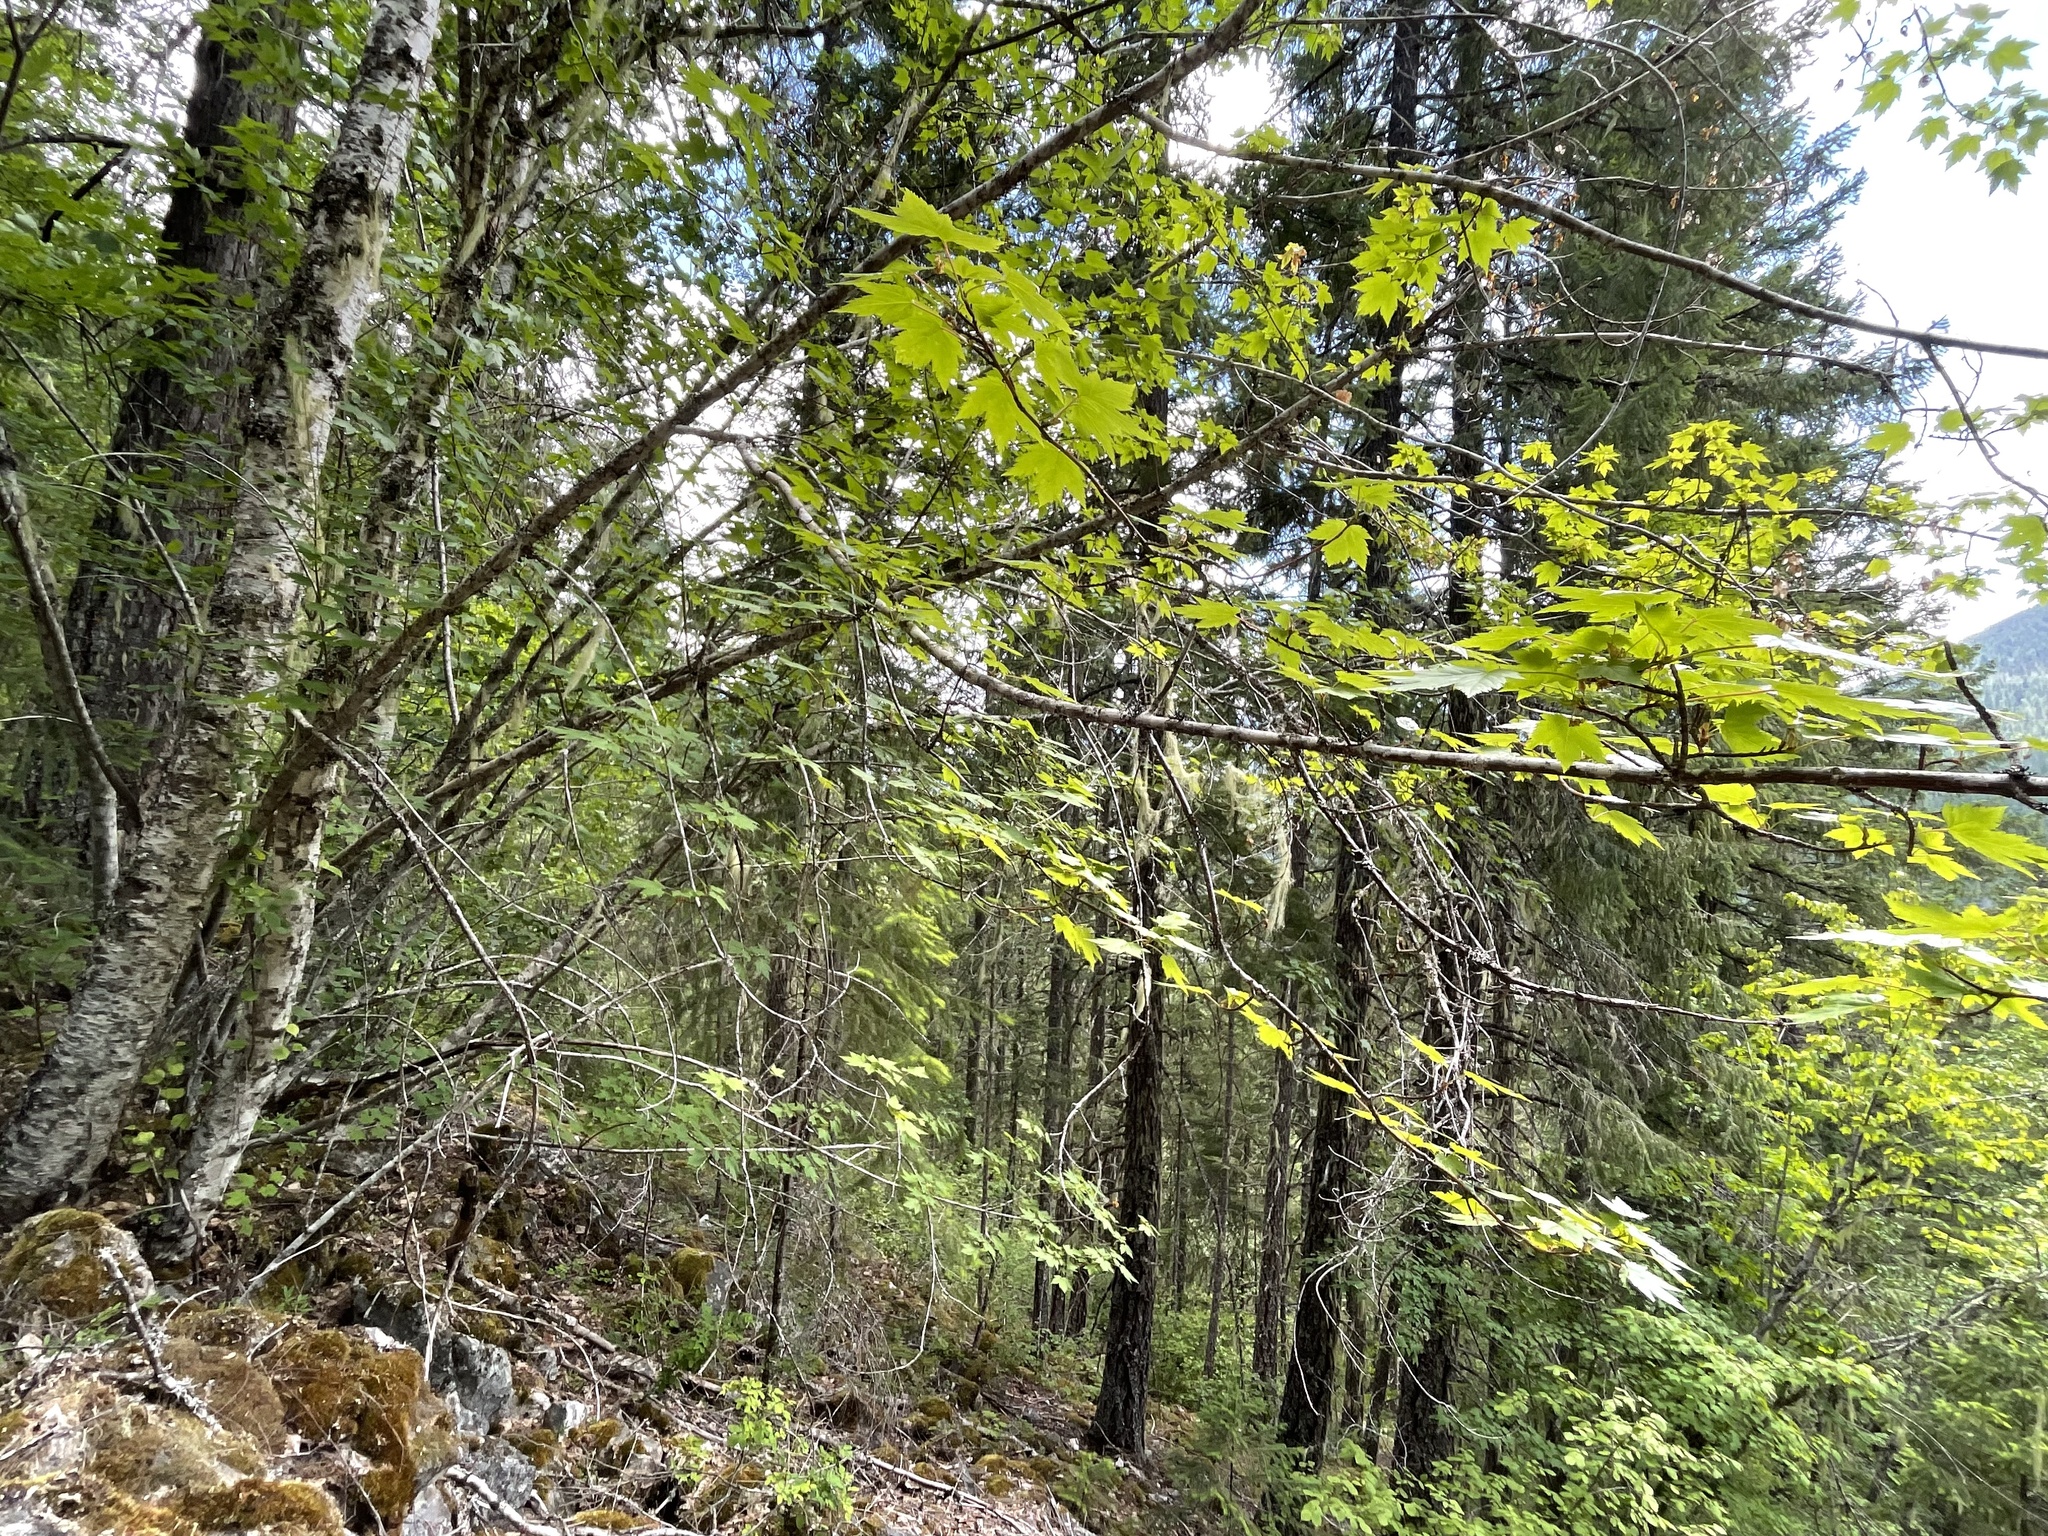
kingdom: Plantae
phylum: Tracheophyta
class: Magnoliopsida
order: Sapindales
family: Sapindaceae
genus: Acer
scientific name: Acer glabrum
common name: Rocky mountain maple
